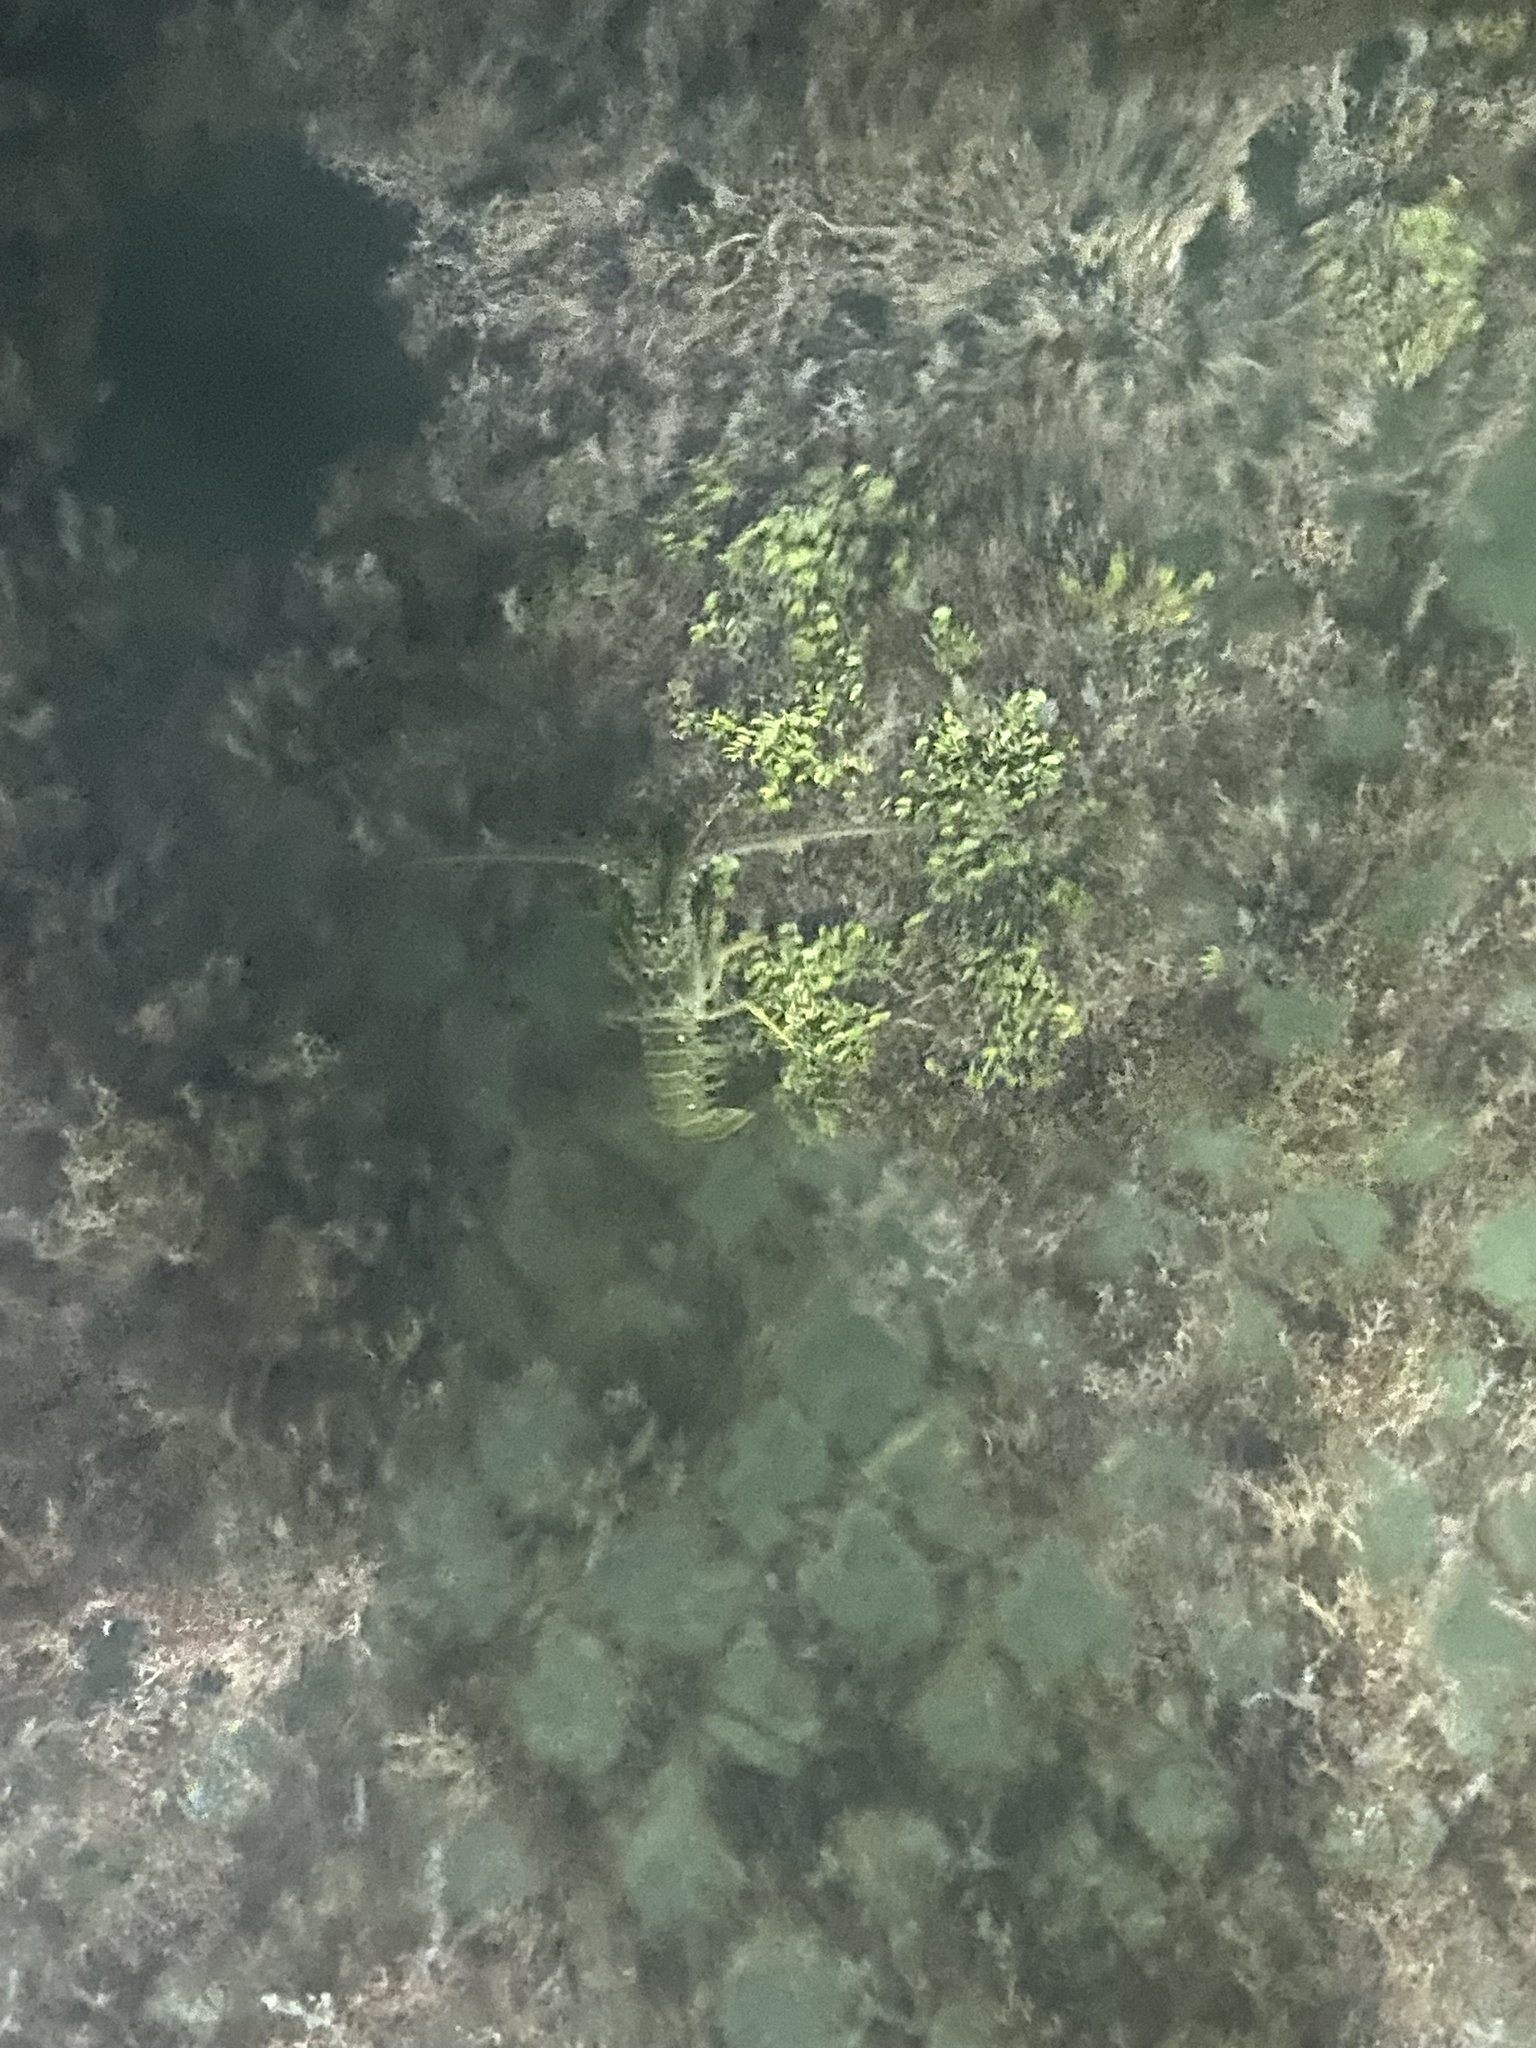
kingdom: Animalia
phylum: Arthropoda
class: Malacostraca
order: Decapoda
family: Palinuridae
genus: Panulirus
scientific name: Panulirus argus
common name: Caribbean spiny lobster
